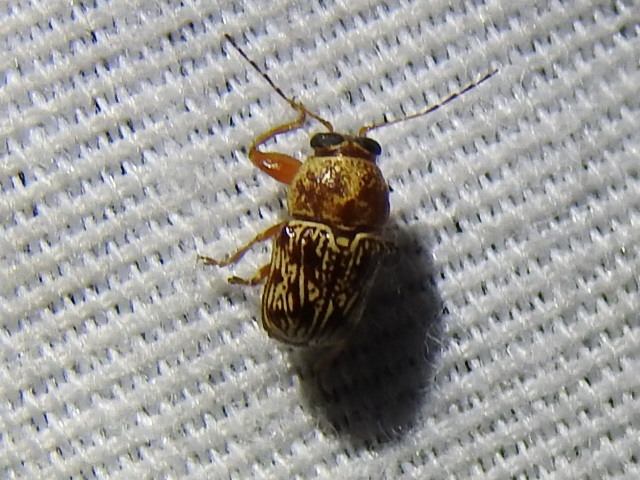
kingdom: Animalia
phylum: Arthropoda
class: Insecta
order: Coleoptera
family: Chrysomelidae
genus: Pachybrachis
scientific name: Pachybrachis
